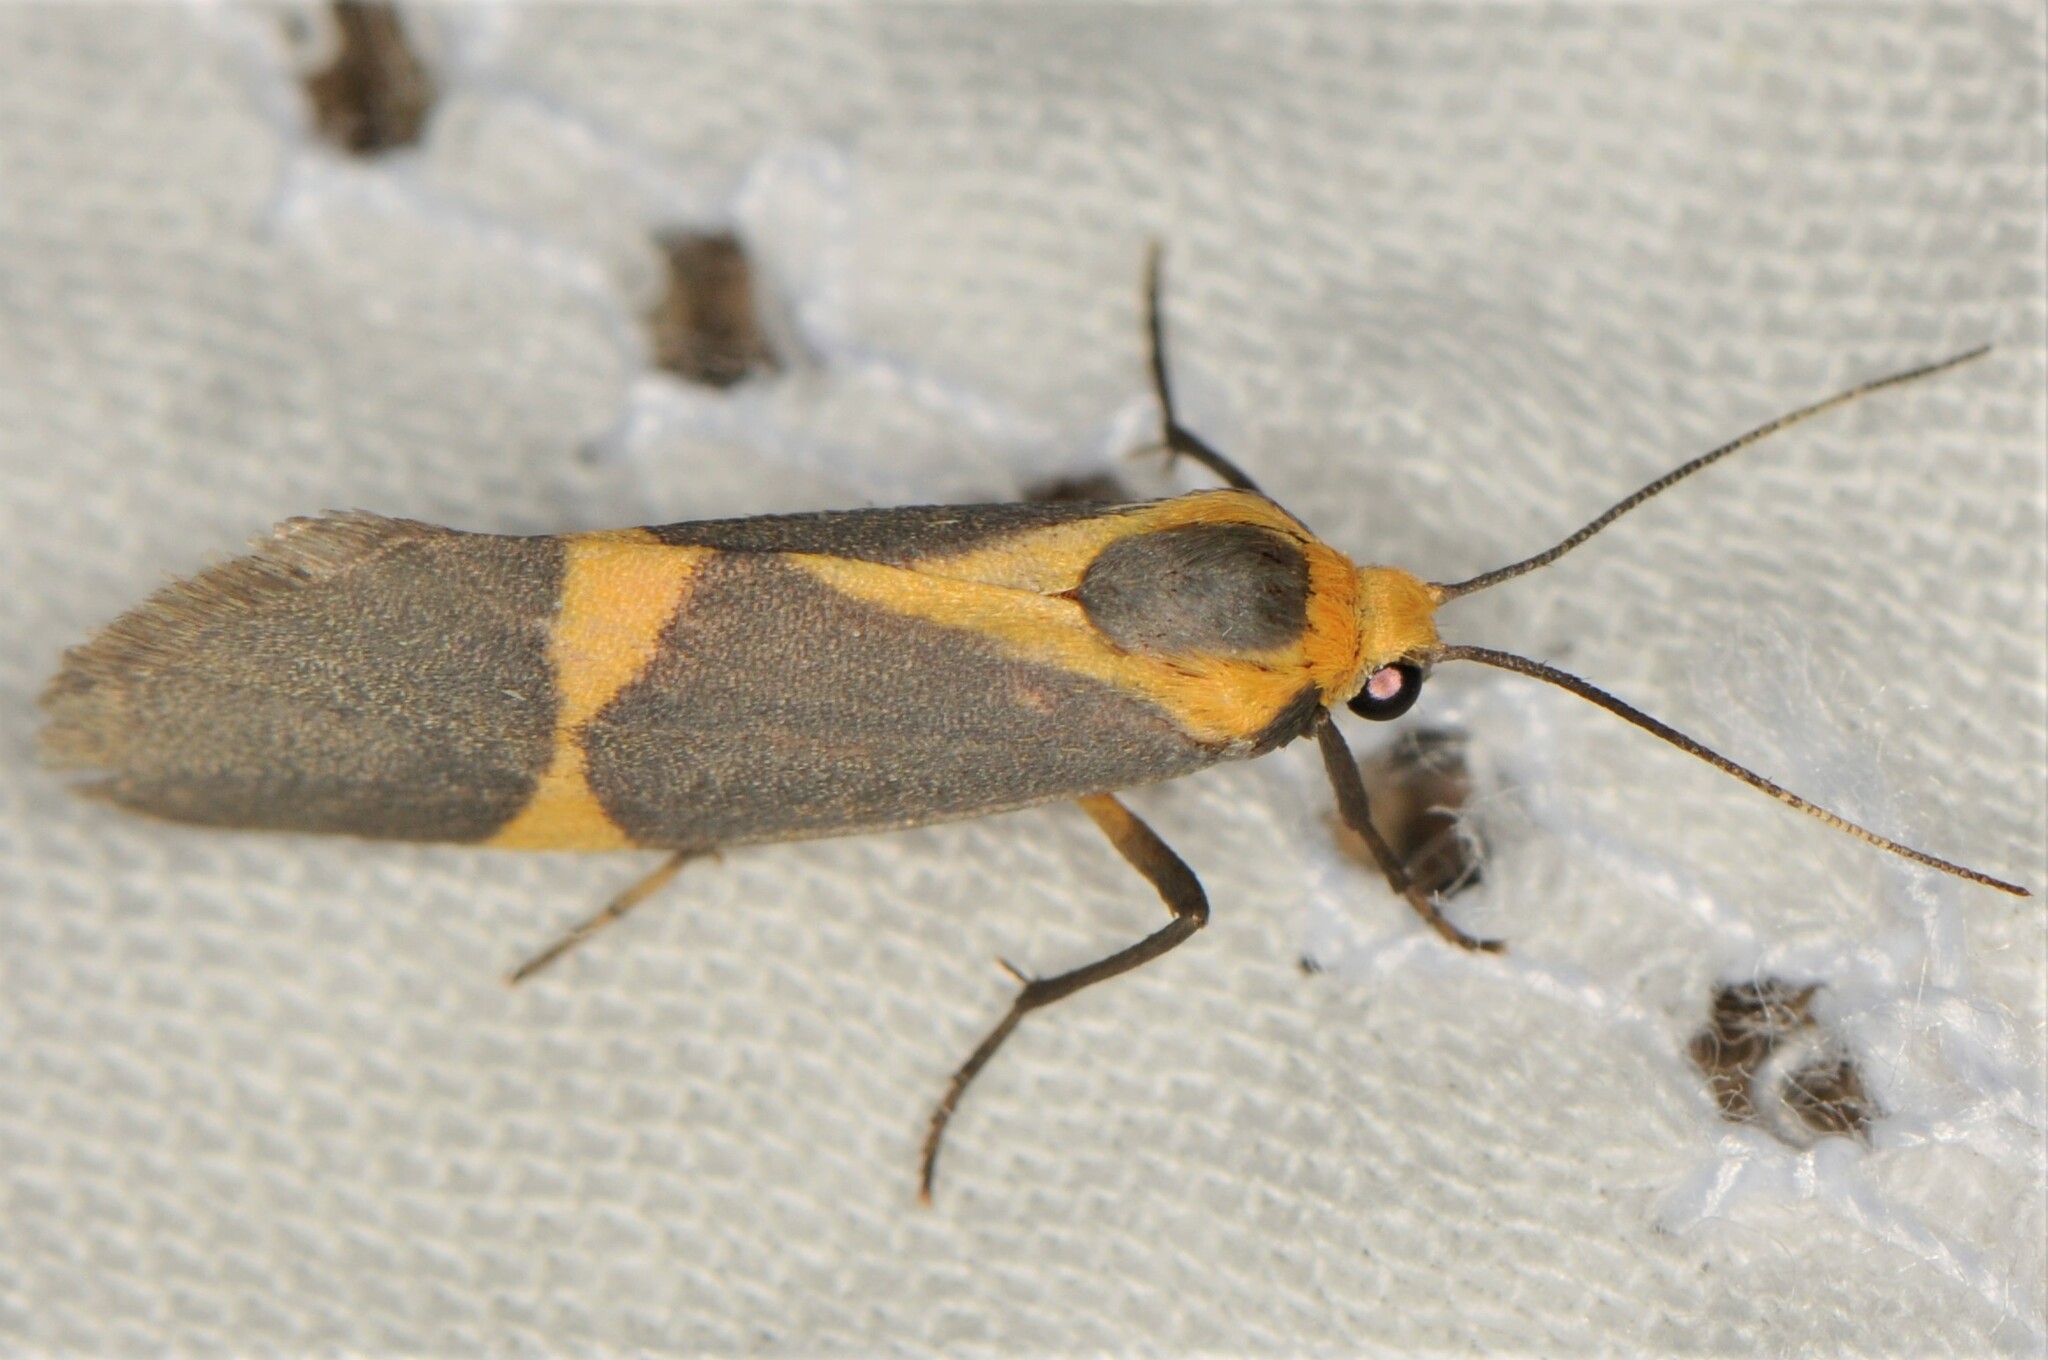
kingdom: Animalia
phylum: Arthropoda
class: Insecta
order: Lepidoptera
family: Erebidae
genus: Cisthene
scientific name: Cisthene tenuifascia
